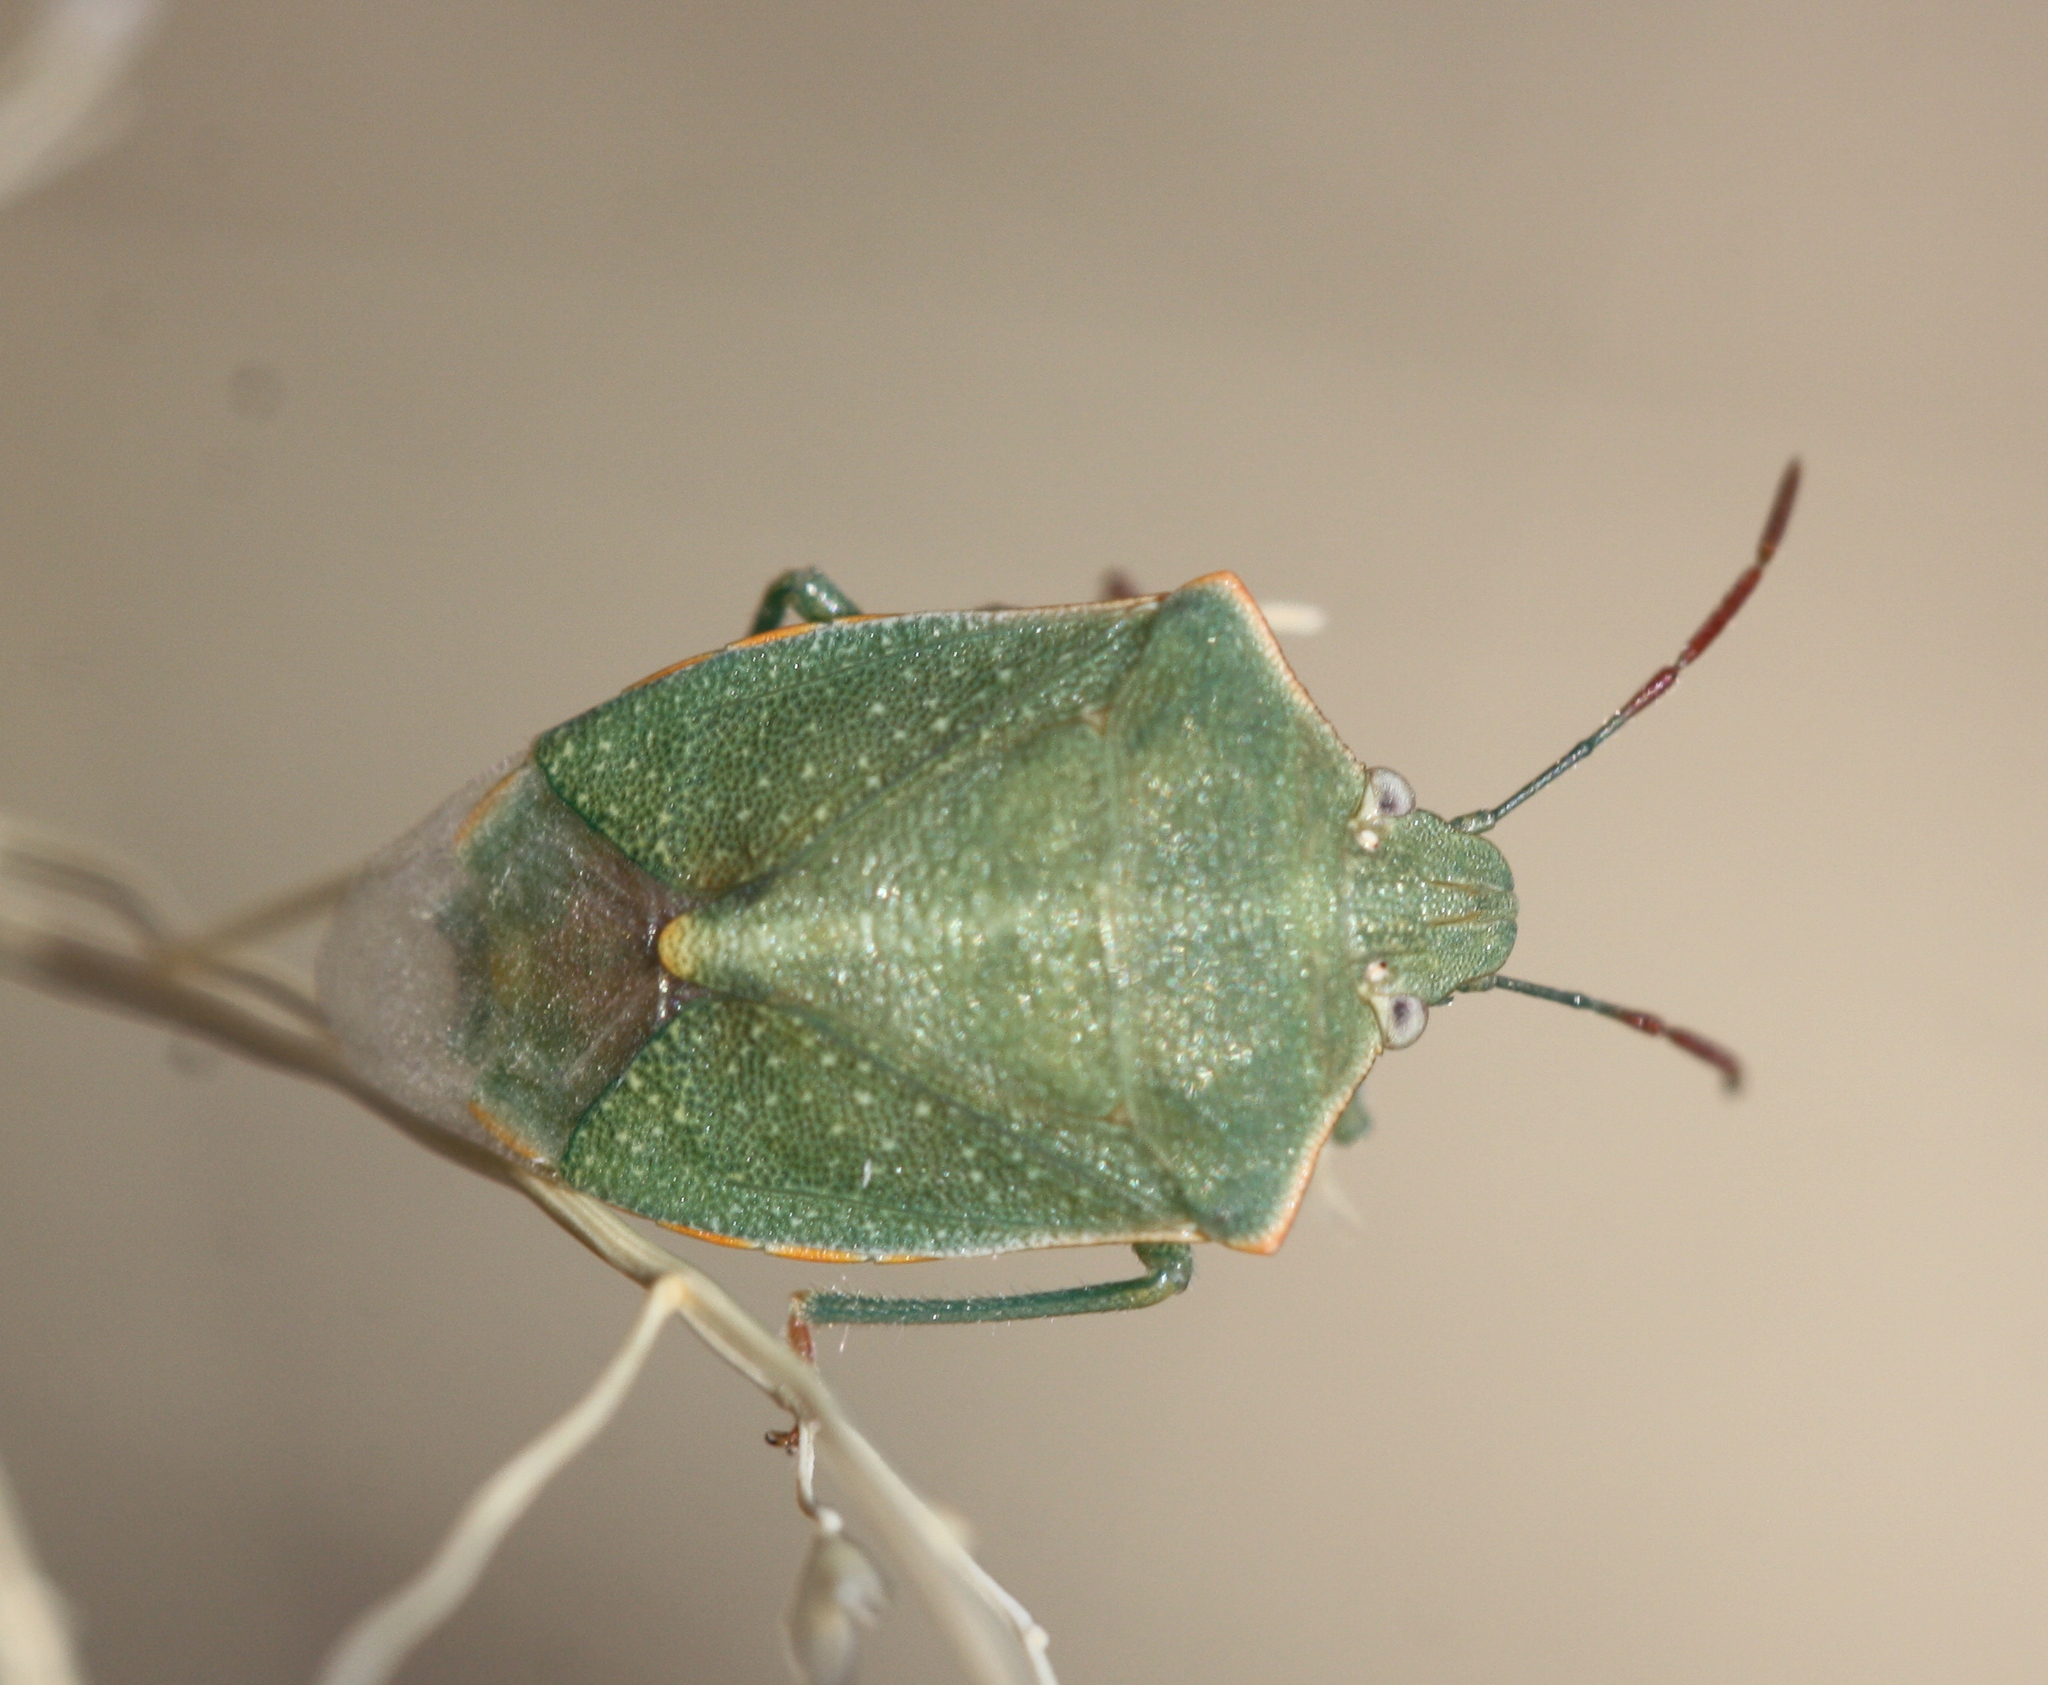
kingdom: Animalia
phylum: Arthropoda
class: Insecta
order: Hemiptera
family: Pentatomidae
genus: Thyanta
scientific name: Thyanta accerra
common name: Stink bug
